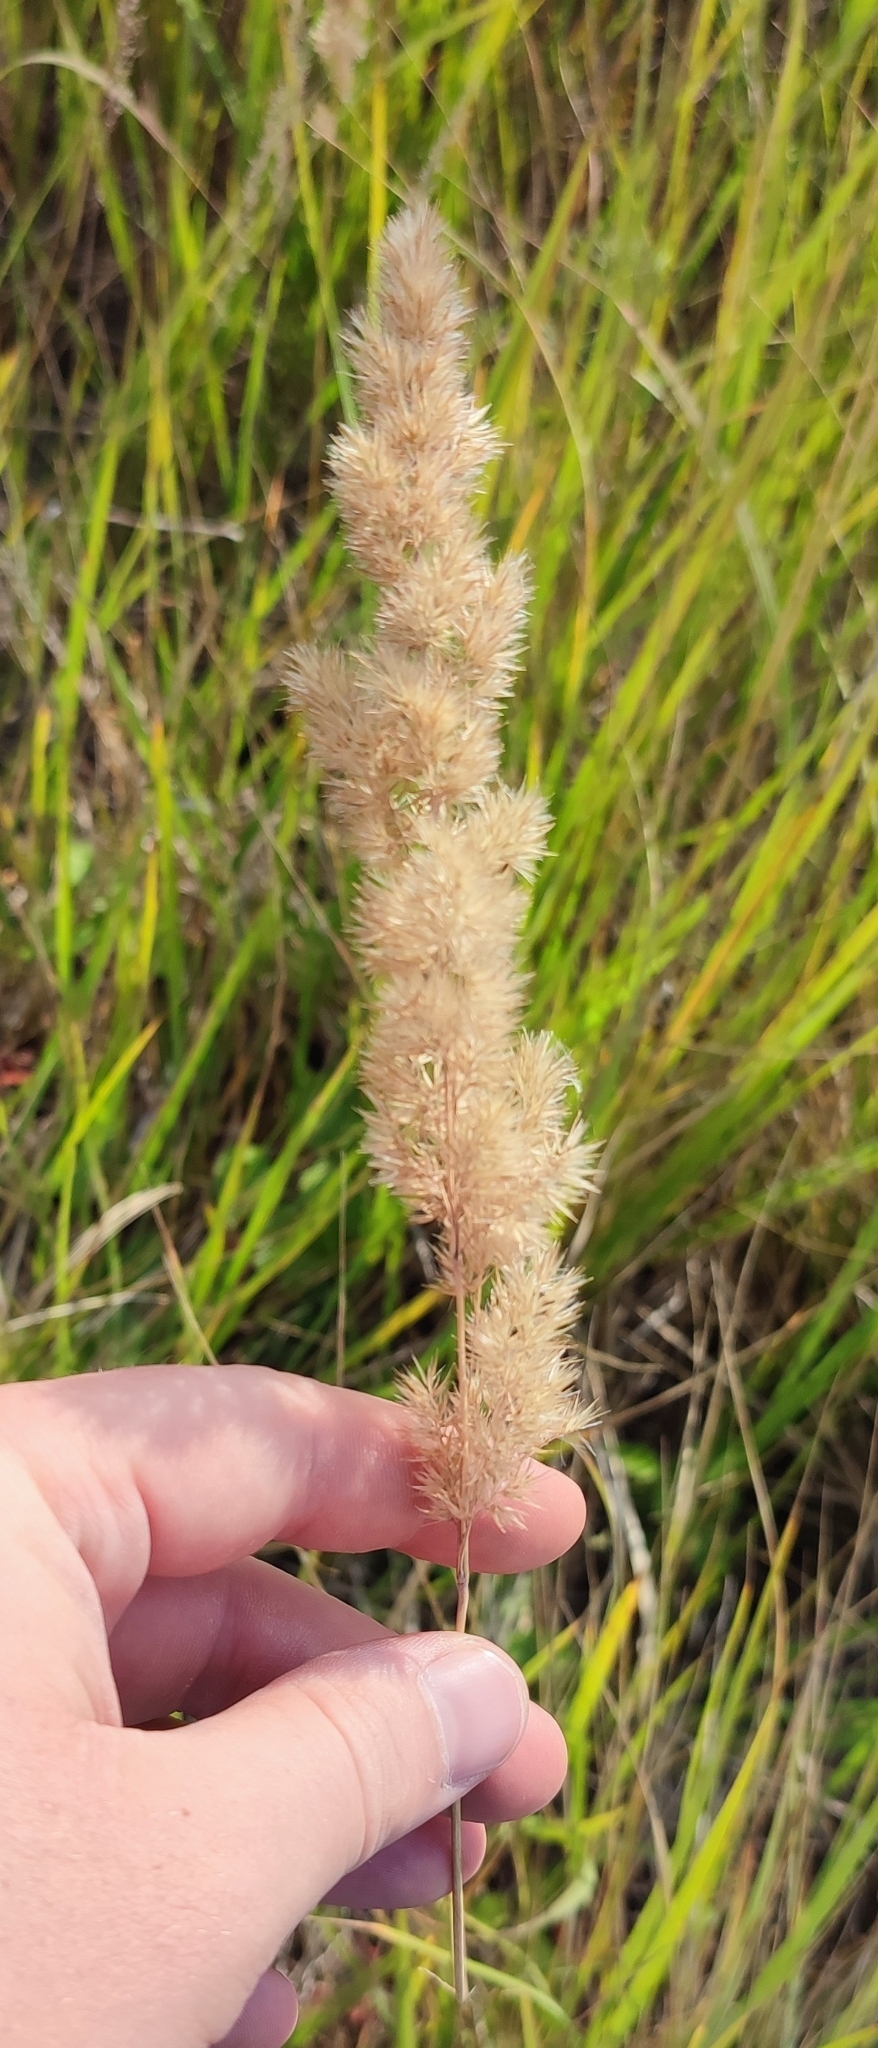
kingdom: Plantae
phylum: Tracheophyta
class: Liliopsida
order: Poales
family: Poaceae
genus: Calamagrostis
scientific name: Calamagrostis epigejos
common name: Wood small-reed
